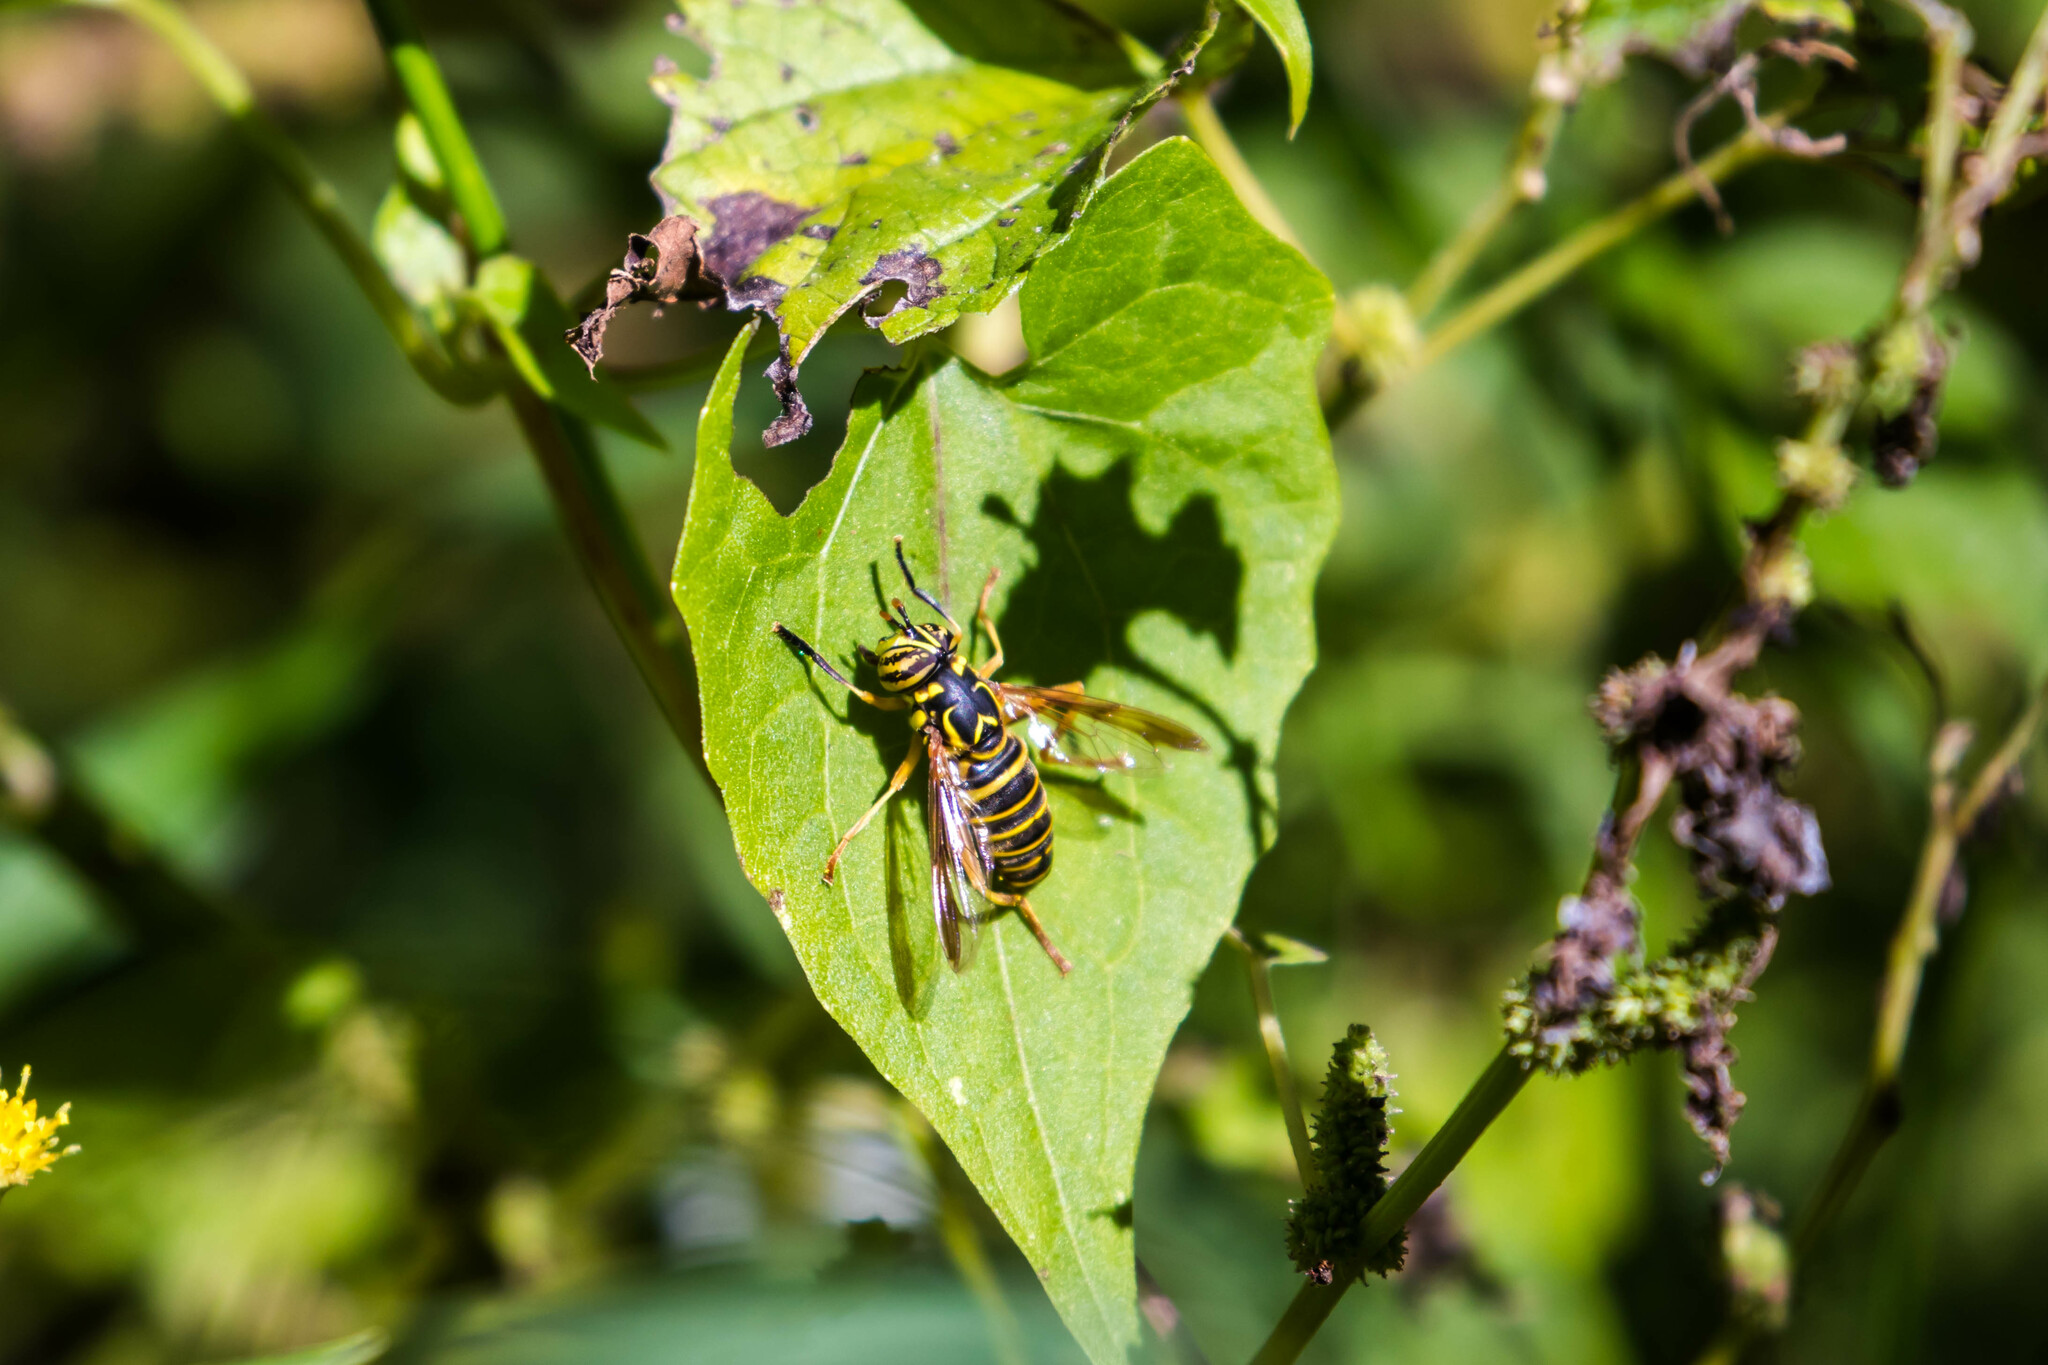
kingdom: Animalia
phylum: Arthropoda
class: Insecta
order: Diptera
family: Syrphidae
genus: Spilomyia
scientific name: Spilomyia longicornis
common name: Eastern hornet fly
